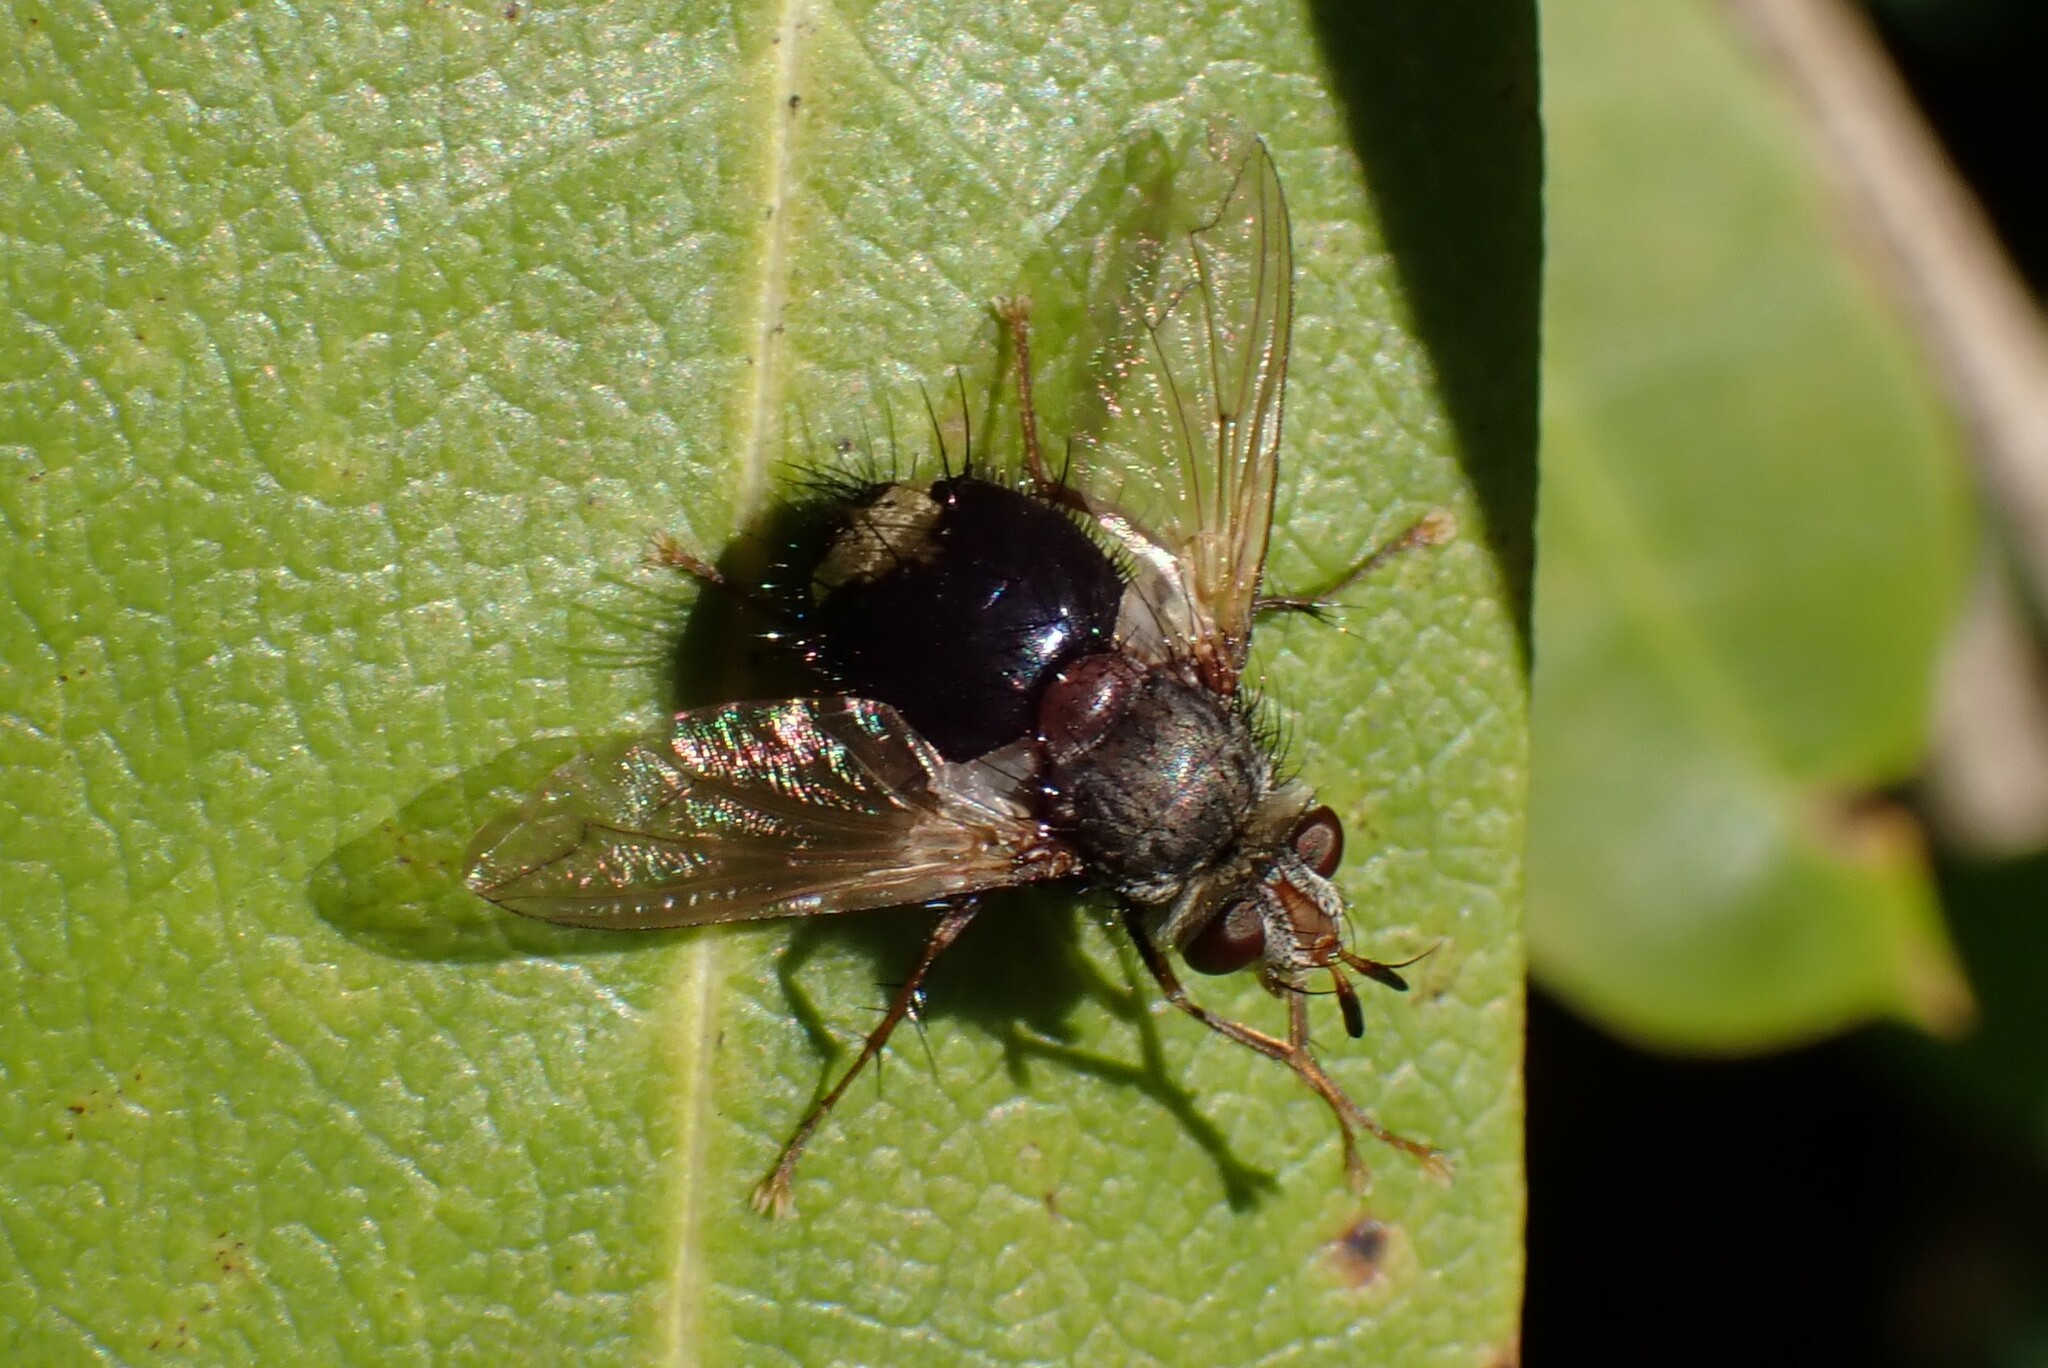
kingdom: Animalia
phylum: Arthropoda
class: Insecta
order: Diptera
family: Tachinidae
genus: Epalpus
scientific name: Epalpus signifer
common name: Early tachinid fly
